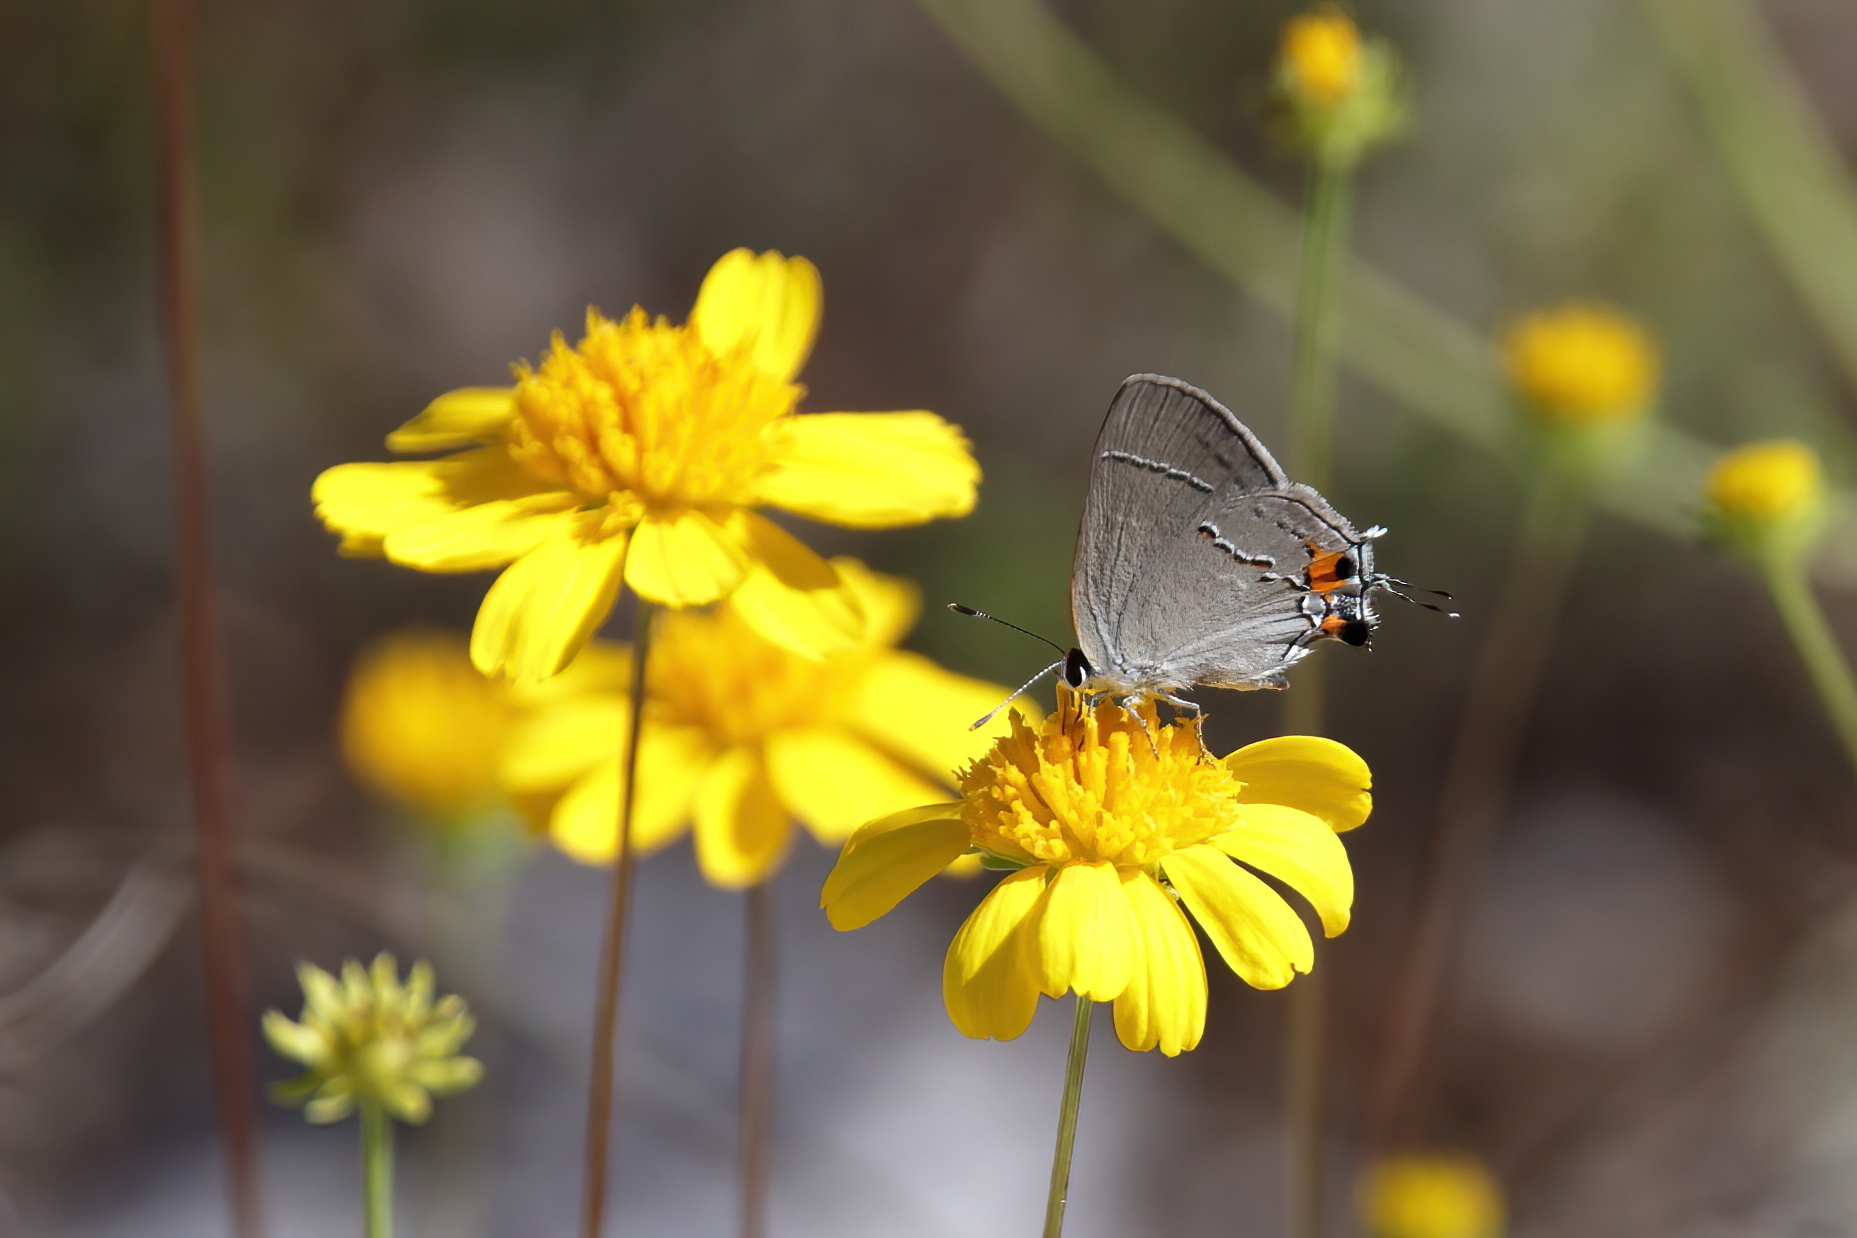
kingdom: Animalia
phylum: Arthropoda
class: Insecta
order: Lepidoptera
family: Lycaenidae
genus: Strymon
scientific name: Strymon melinus
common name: Gray hairstreak
